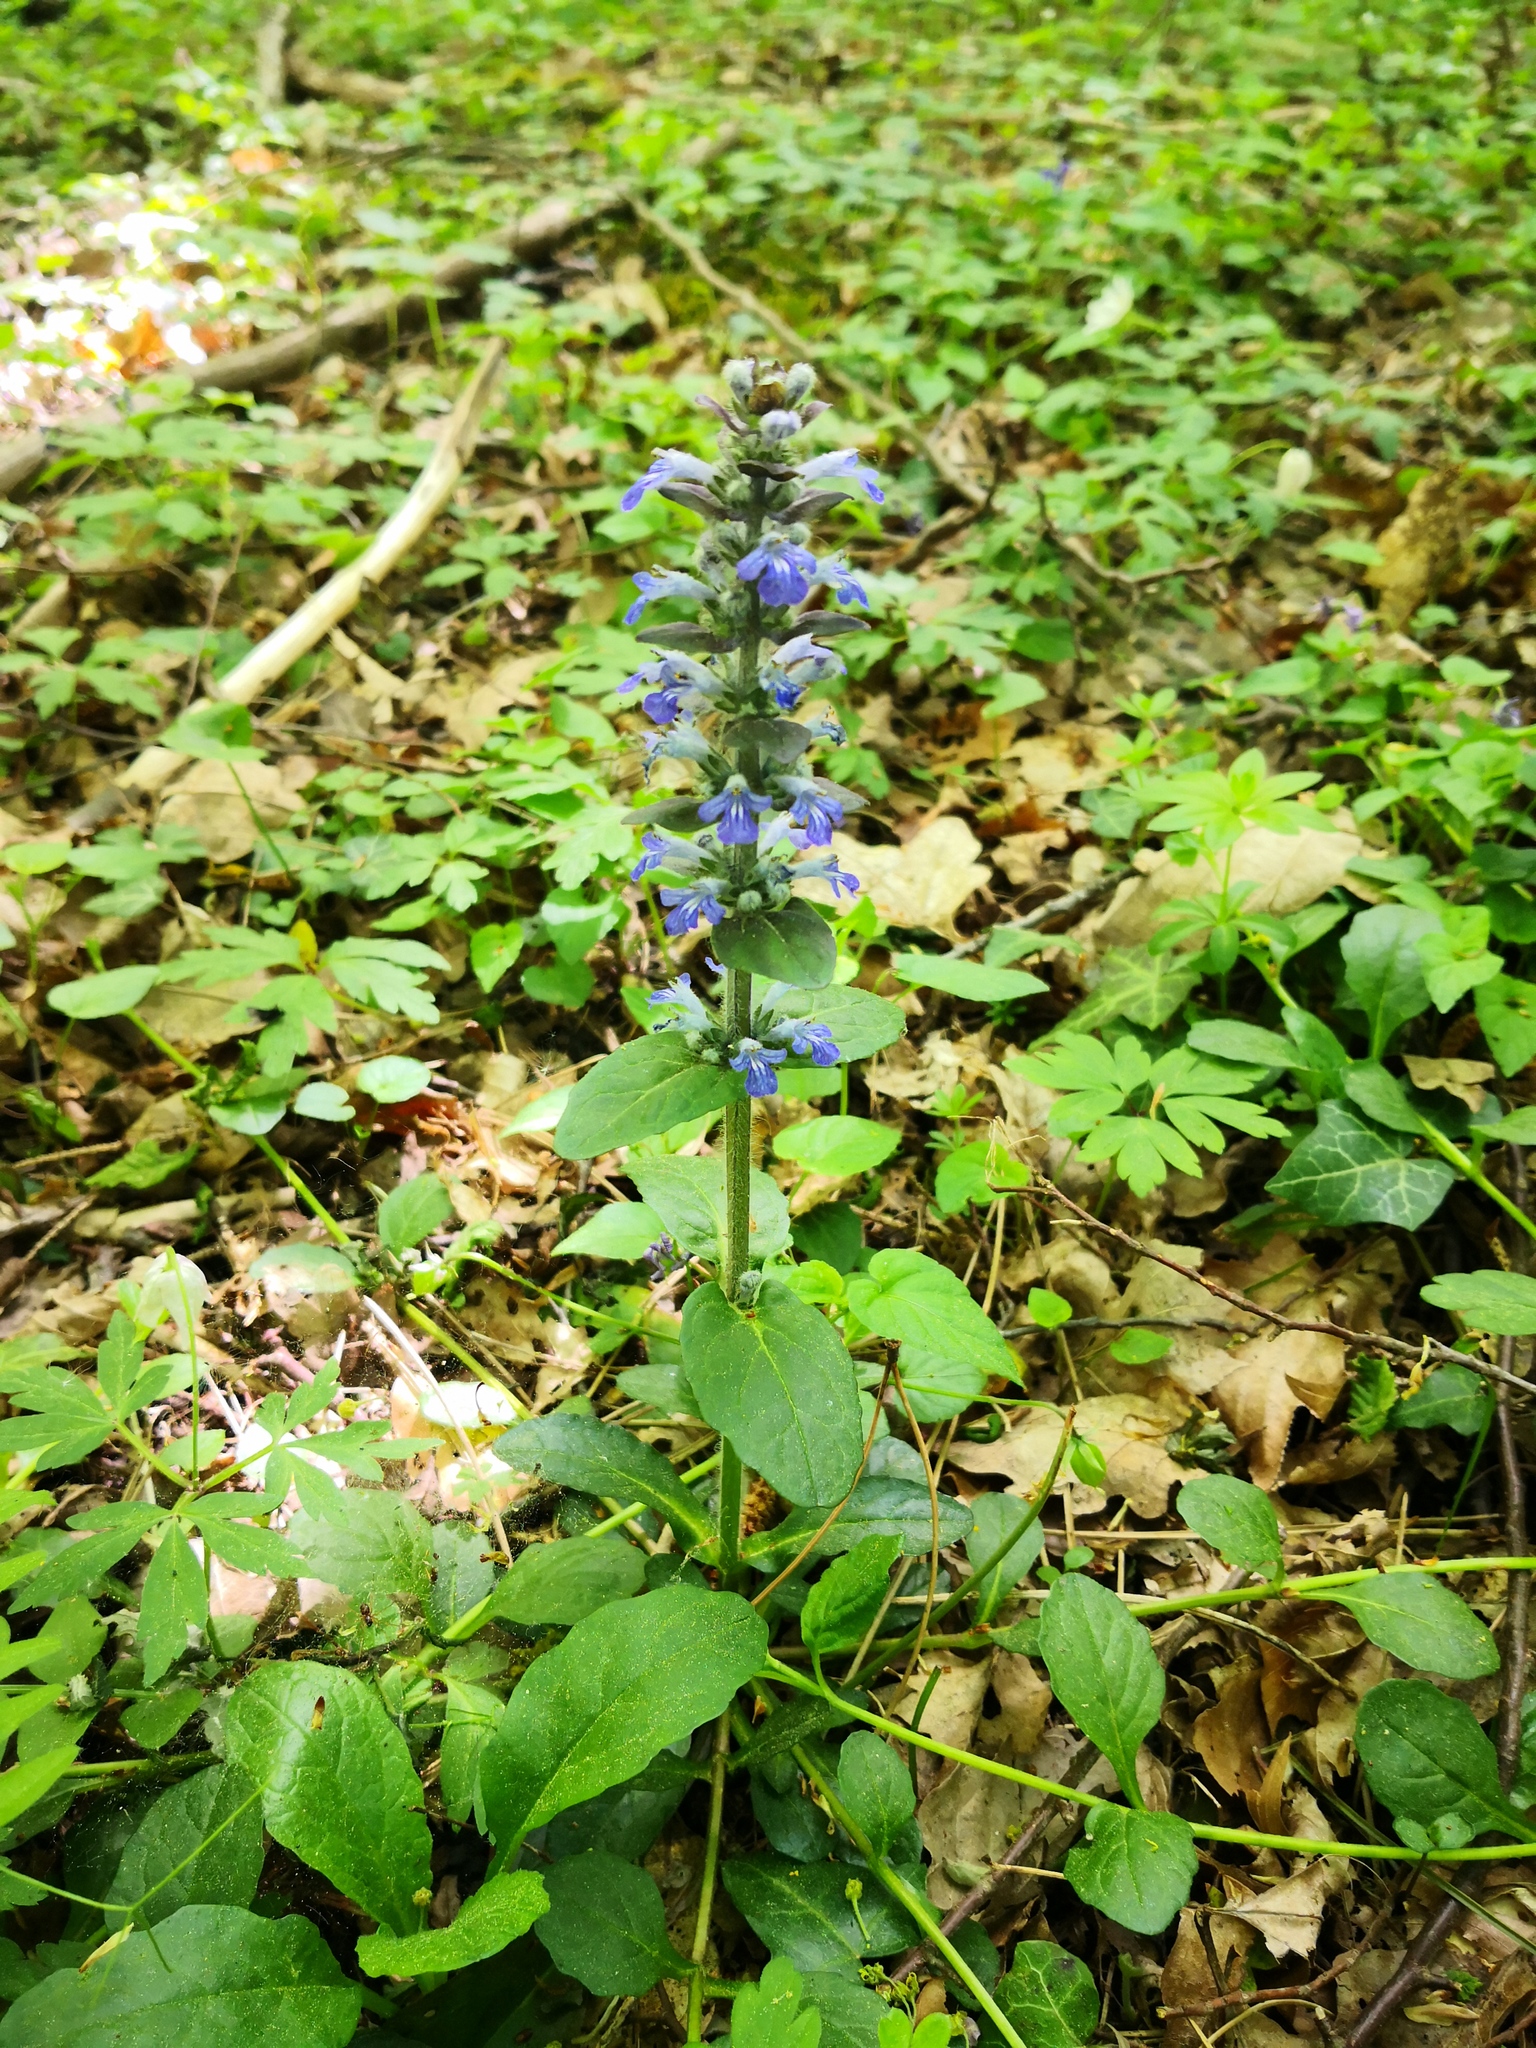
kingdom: Plantae
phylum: Tracheophyta
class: Magnoliopsida
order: Lamiales
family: Lamiaceae
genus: Ajuga
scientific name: Ajuga reptans
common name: Bugle
